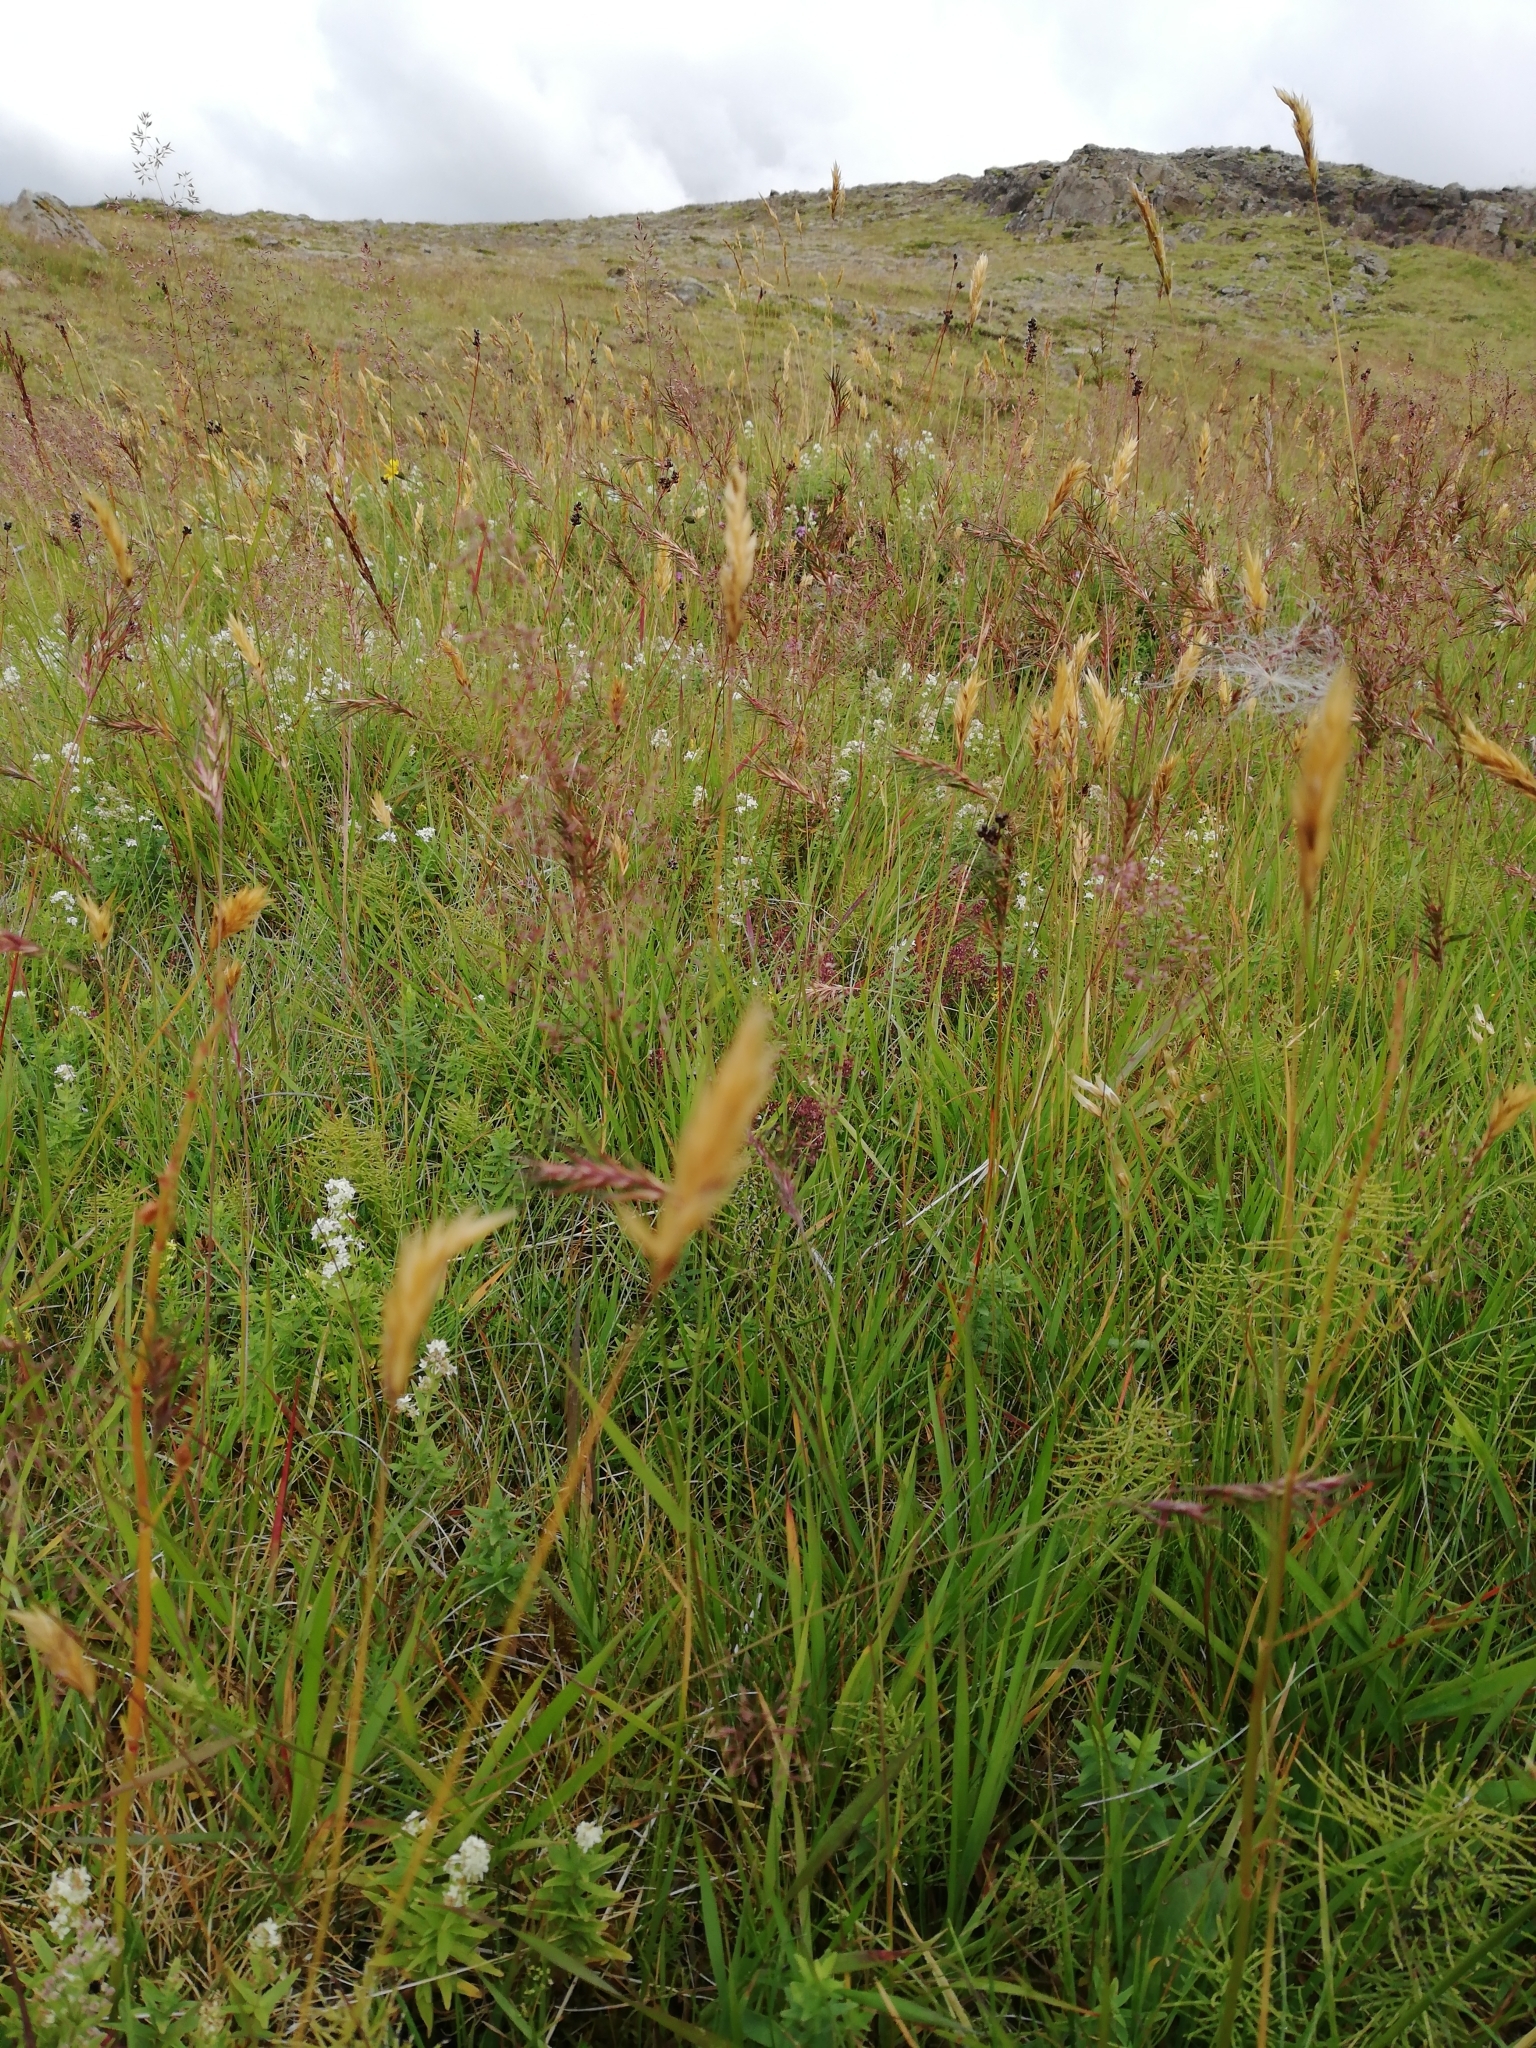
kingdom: Plantae
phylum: Tracheophyta
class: Liliopsida
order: Poales
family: Poaceae
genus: Anthoxanthum
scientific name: Anthoxanthum odoratum
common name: Sweet vernalgrass
